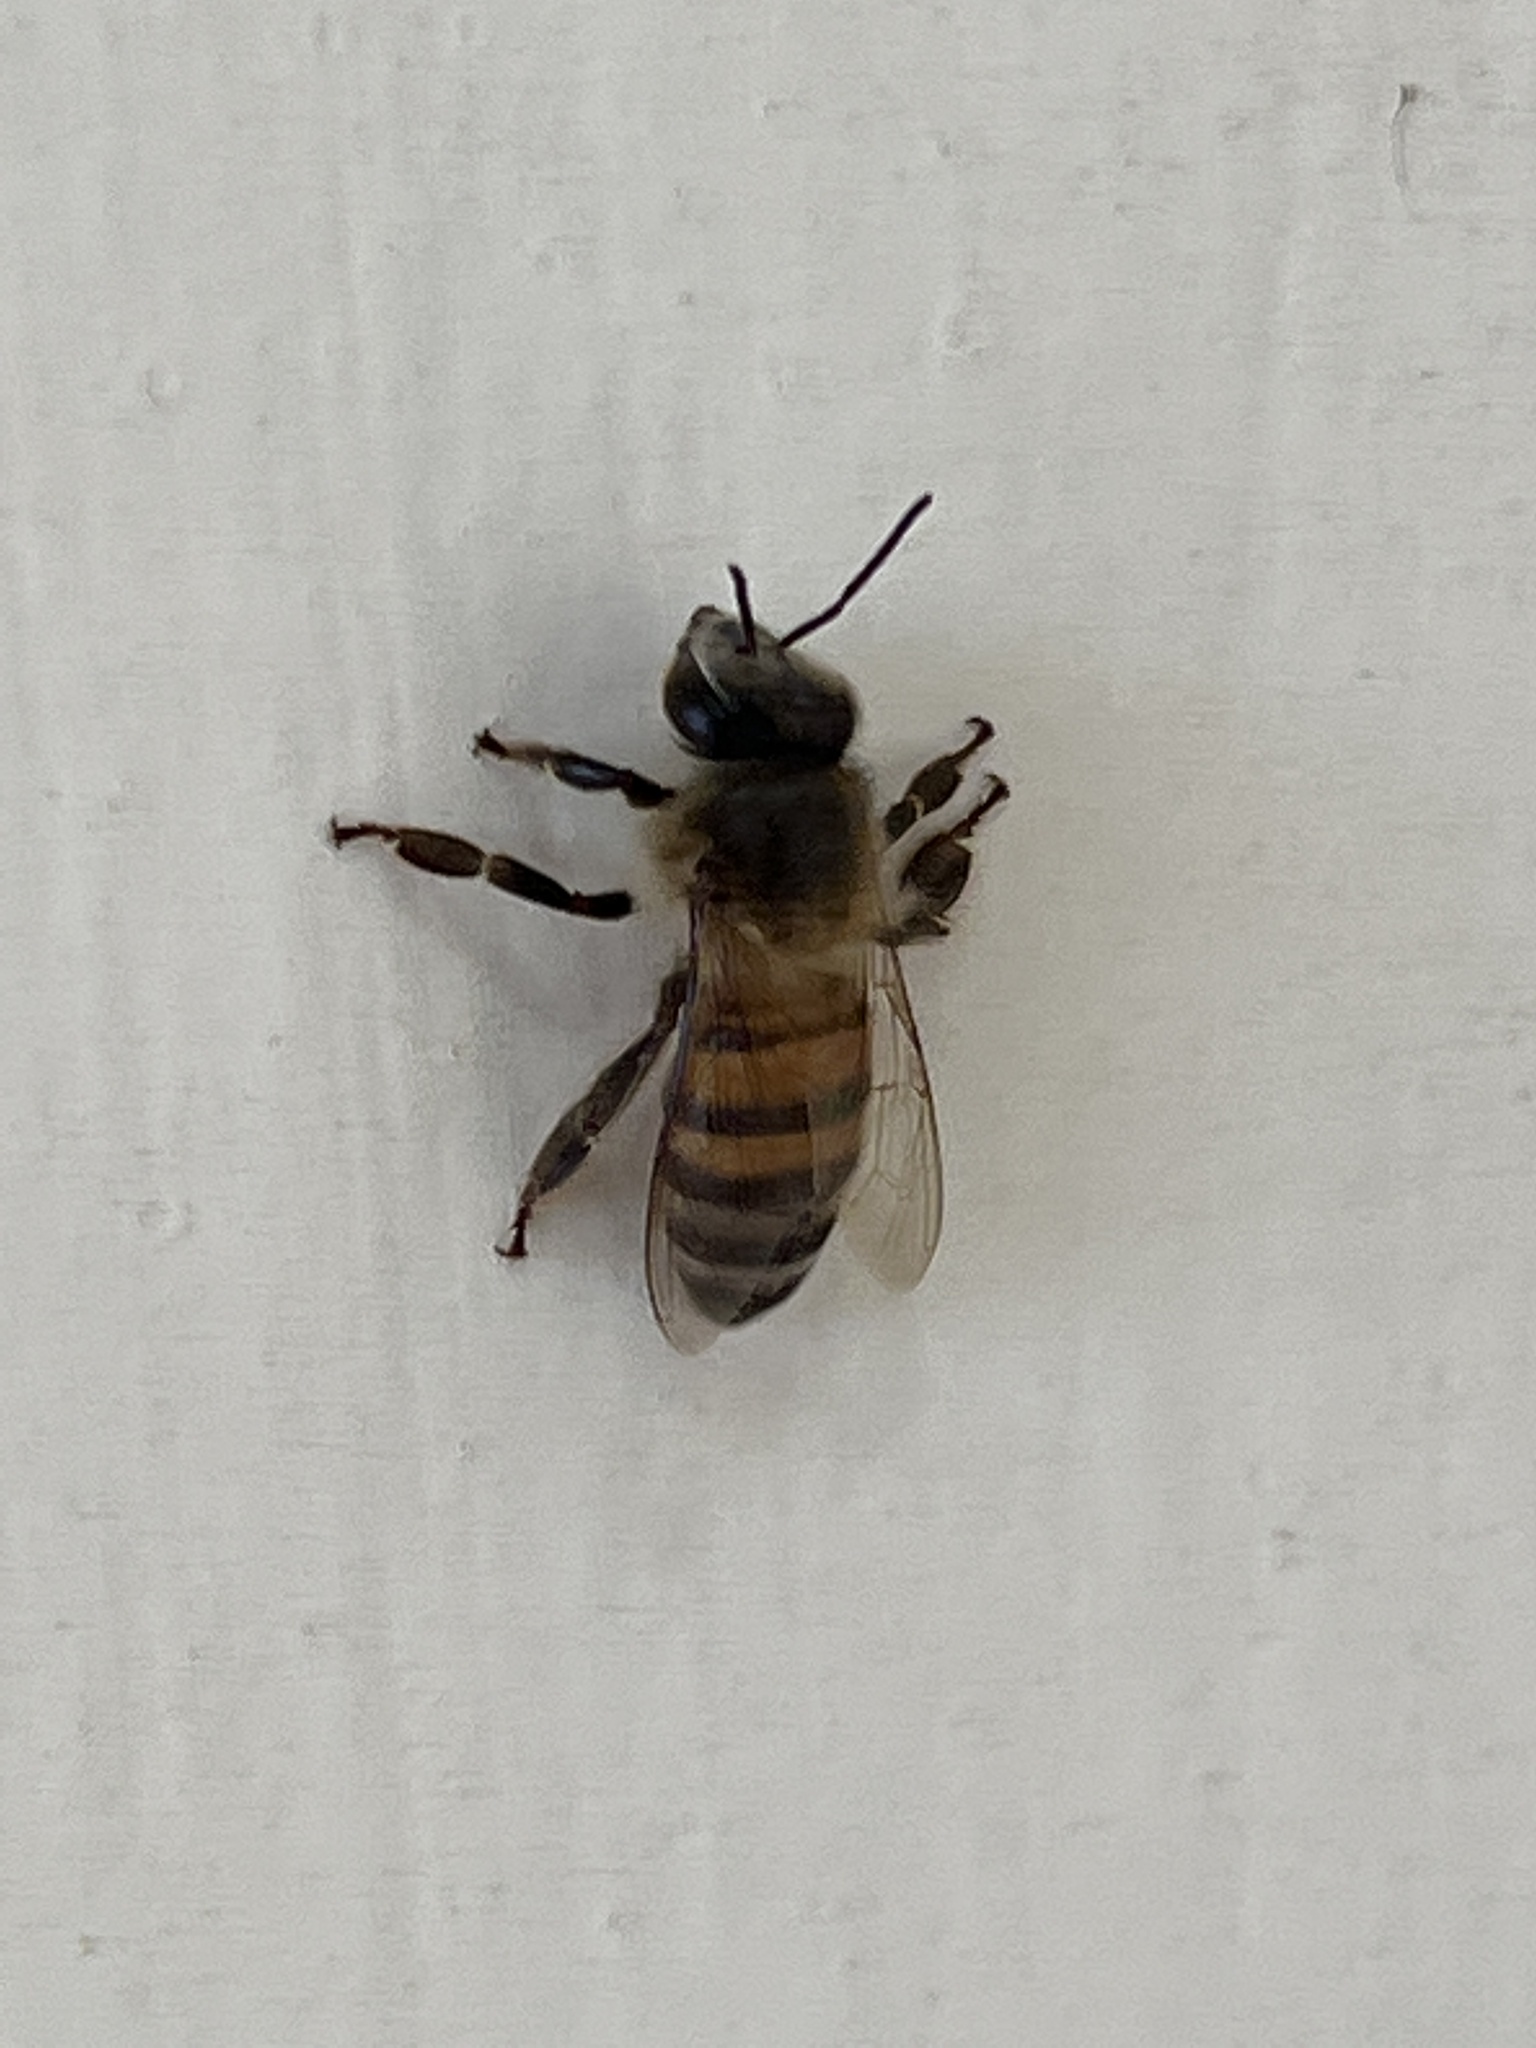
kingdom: Animalia
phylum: Arthropoda
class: Insecta
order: Hymenoptera
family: Apidae
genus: Apis
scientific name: Apis mellifera
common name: Honey bee
